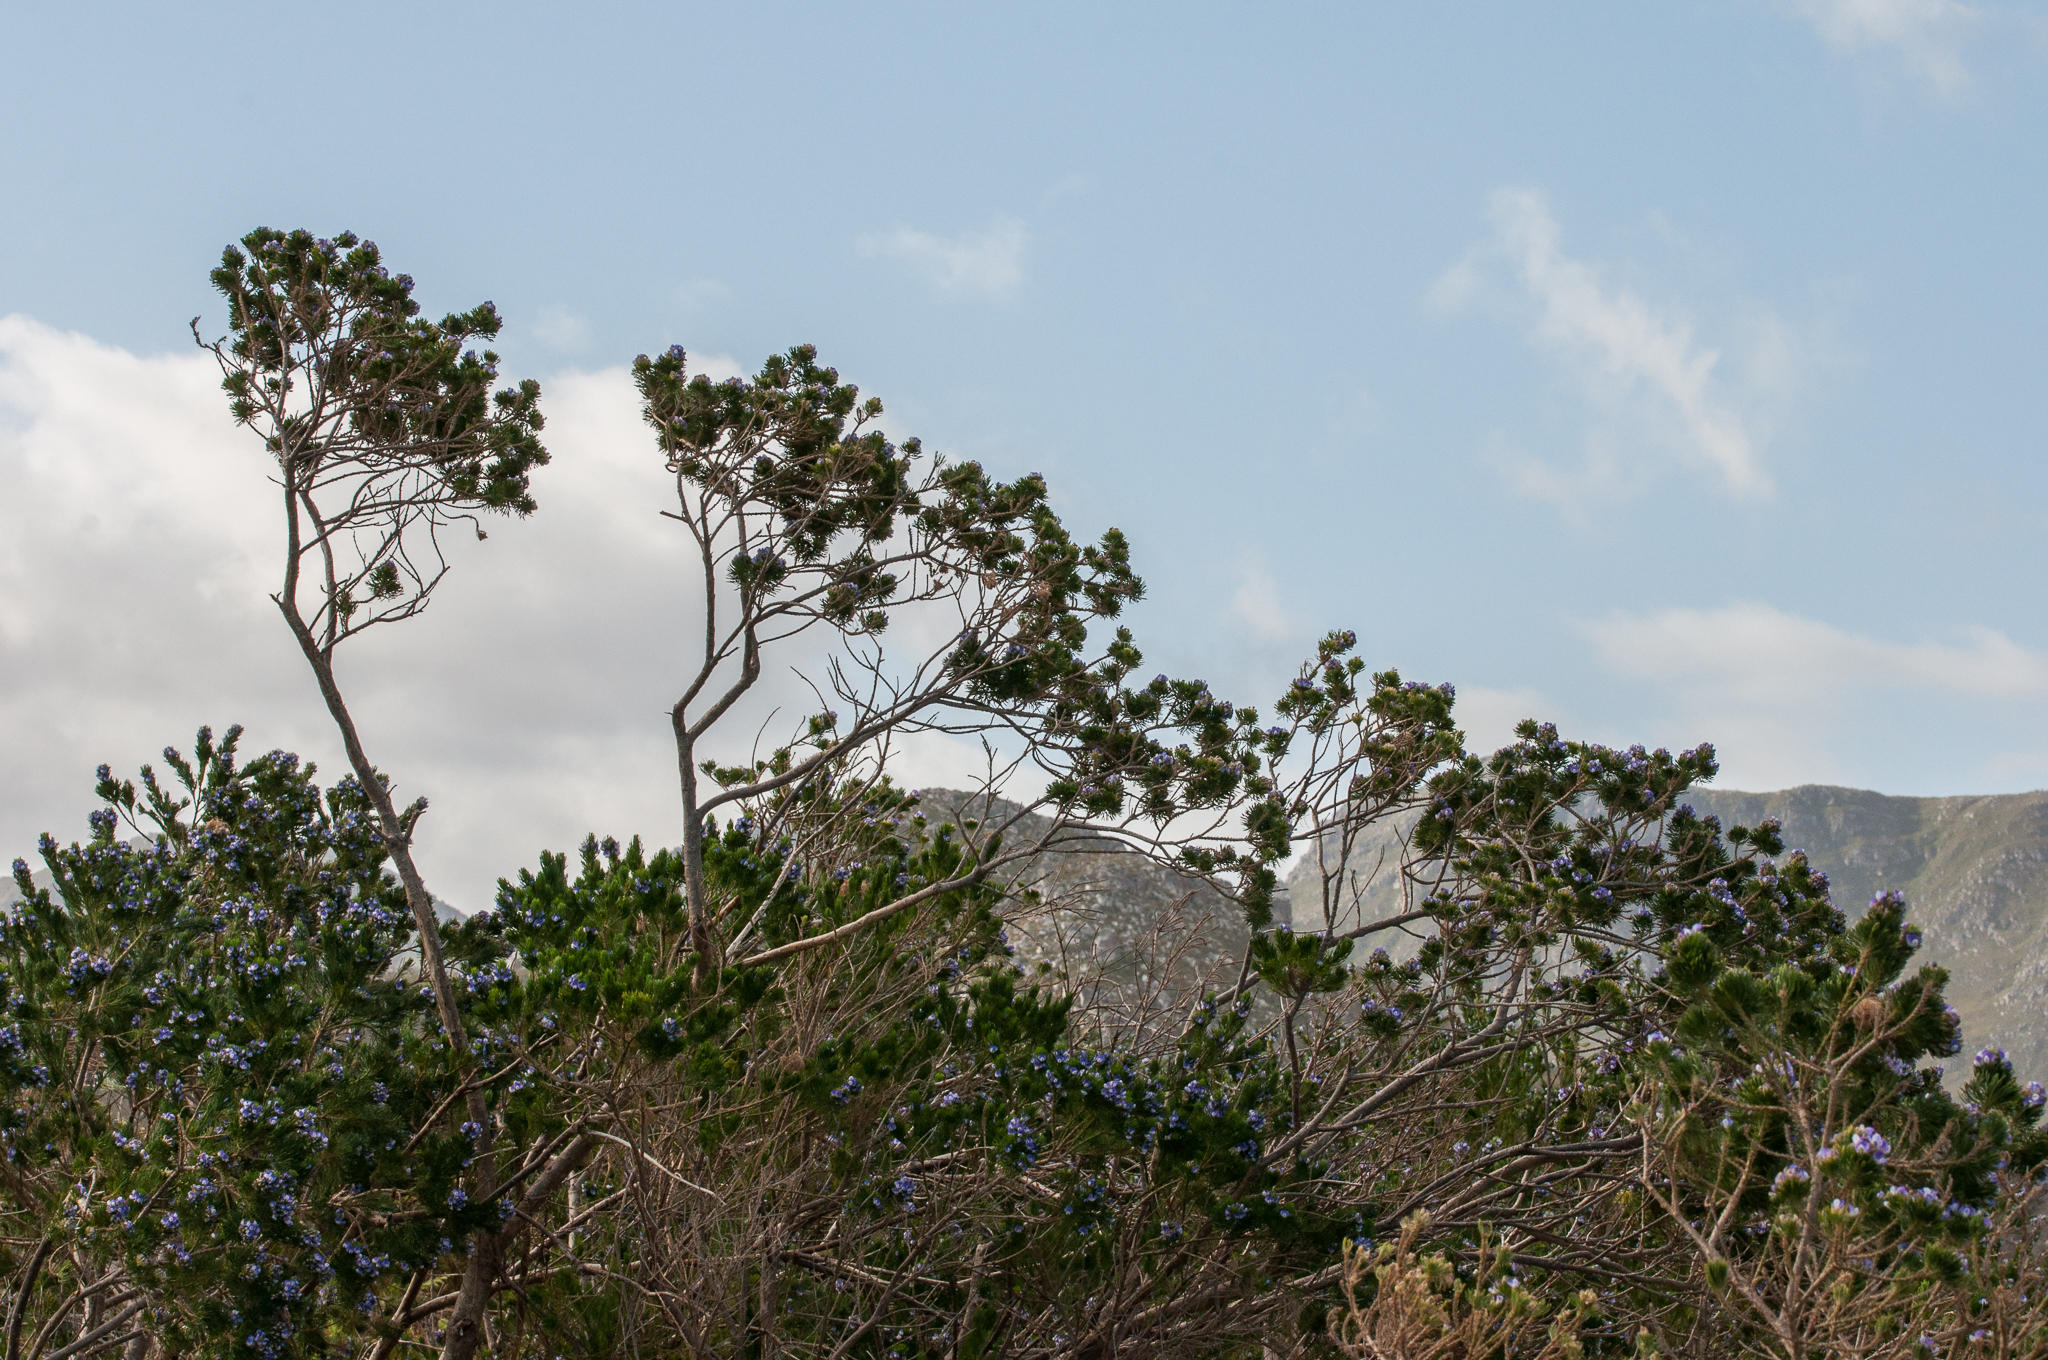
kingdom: Plantae
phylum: Tracheophyta
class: Magnoliopsida
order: Fabales
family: Fabaceae
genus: Psoralea
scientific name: Psoralea pinnata
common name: African scurfpea
